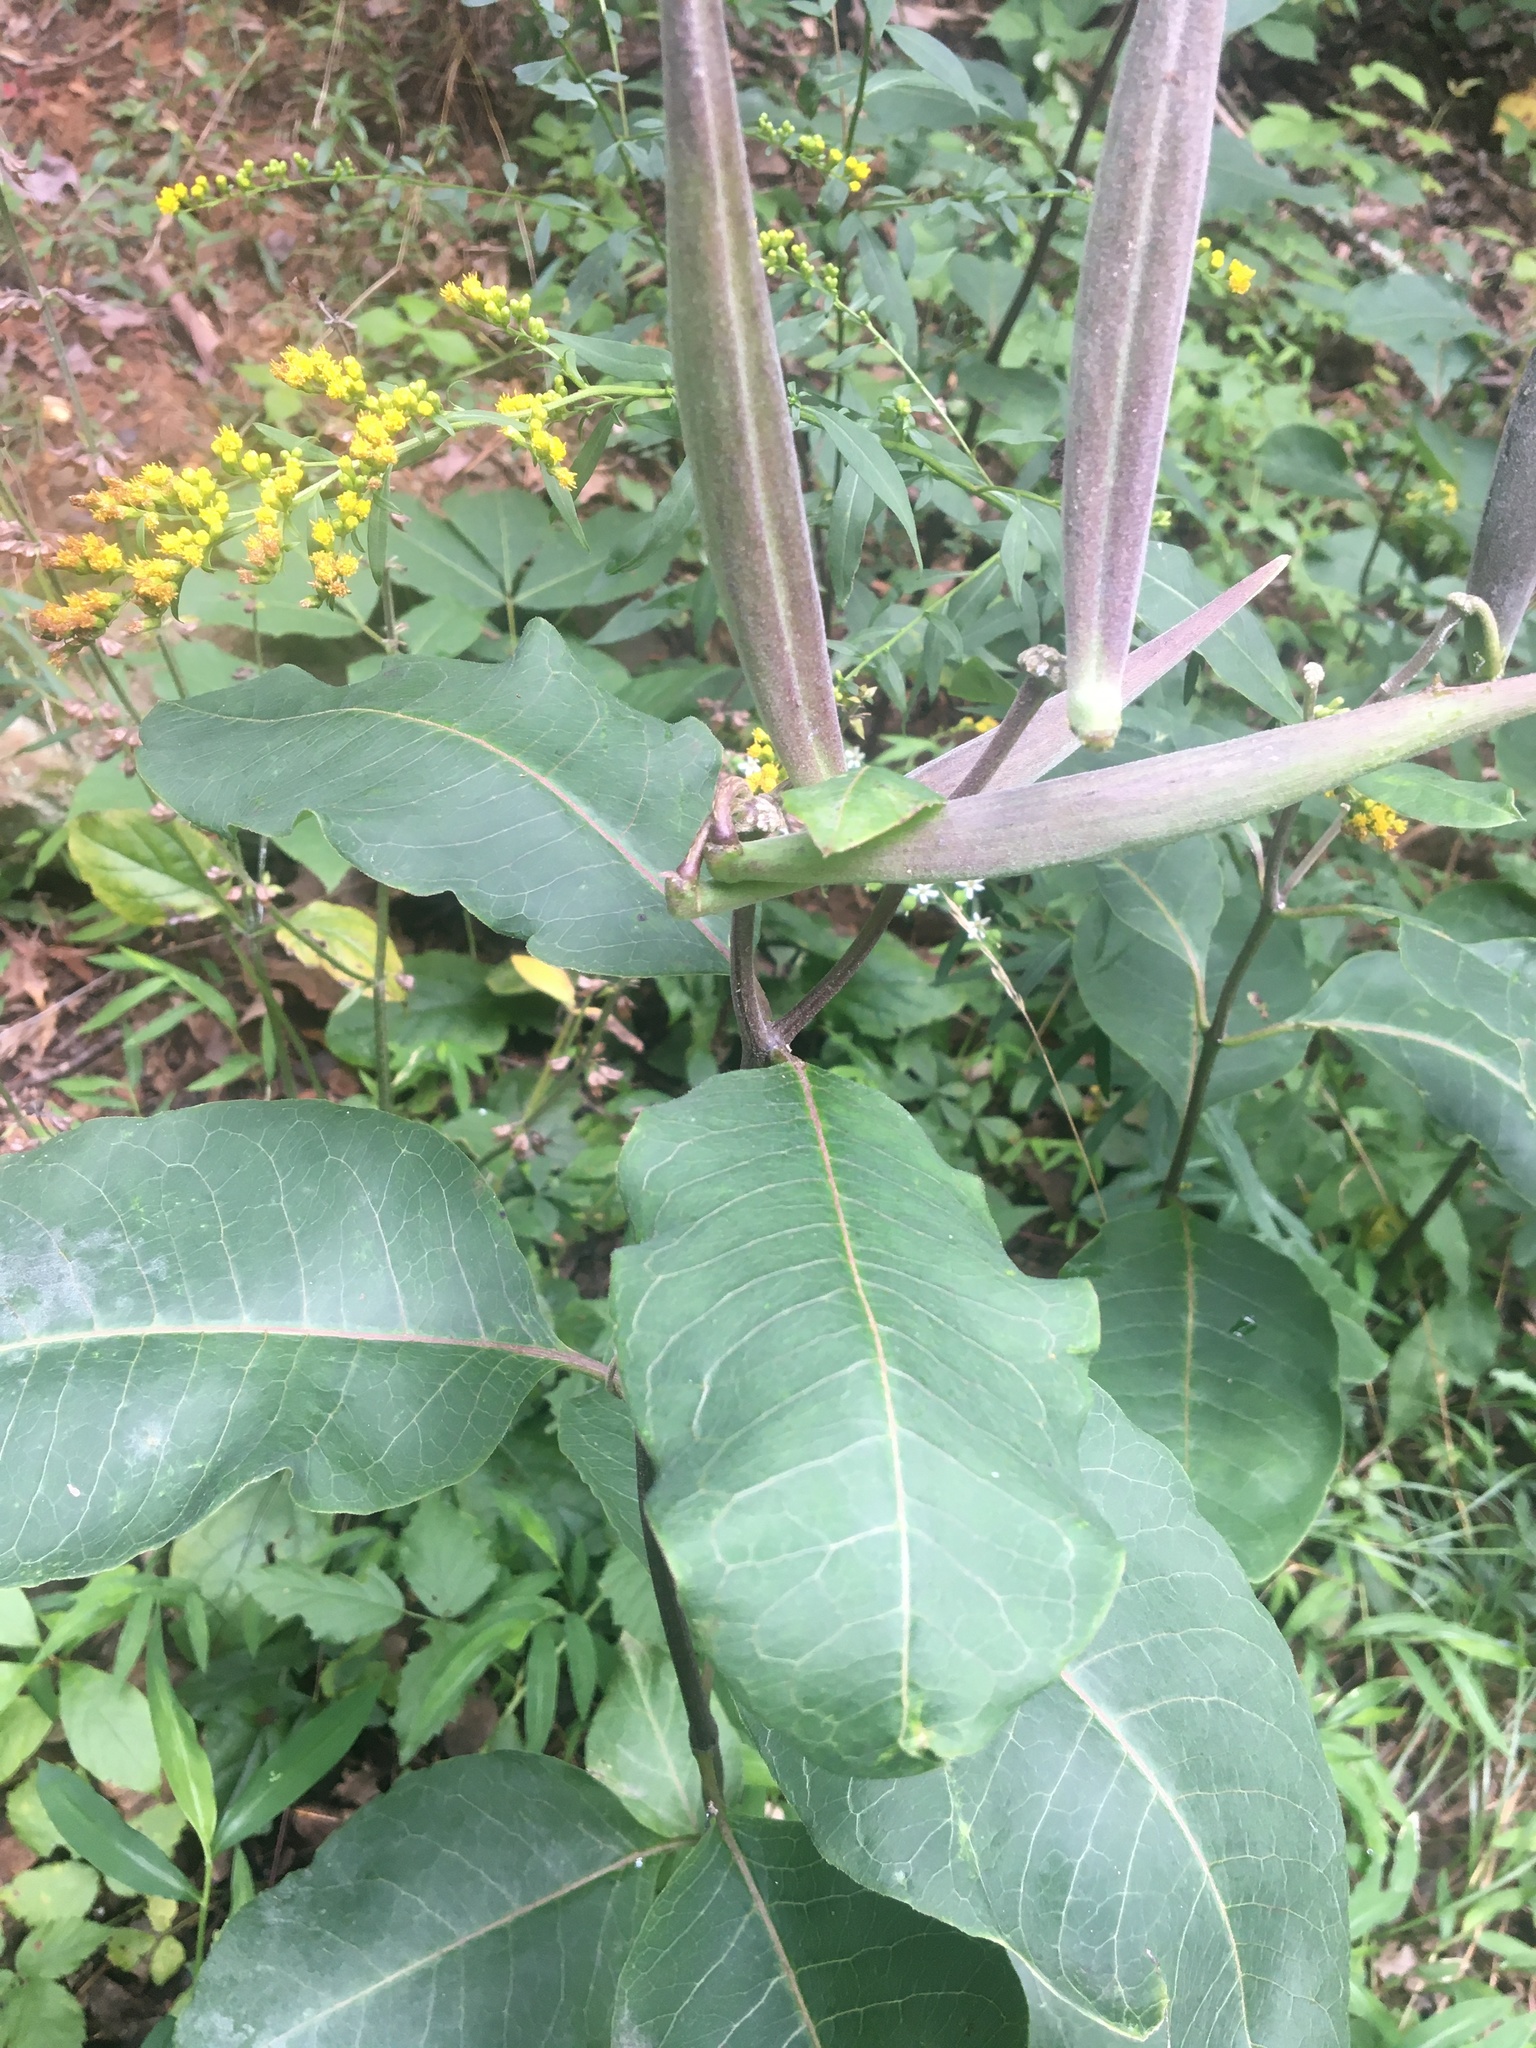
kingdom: Plantae
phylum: Tracheophyta
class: Magnoliopsida
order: Gentianales
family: Apocynaceae
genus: Asclepias
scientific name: Asclepias variegata
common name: Variegated milkweed
